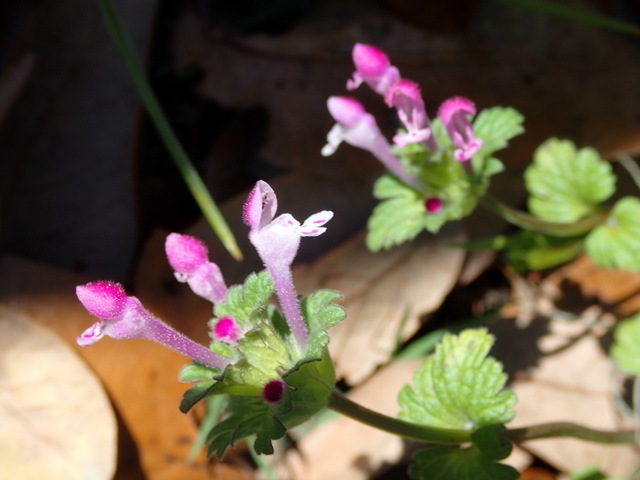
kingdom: Plantae
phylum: Tracheophyta
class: Magnoliopsida
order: Lamiales
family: Lamiaceae
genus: Lamium
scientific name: Lamium amplexicaule
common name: Henbit dead-nettle
